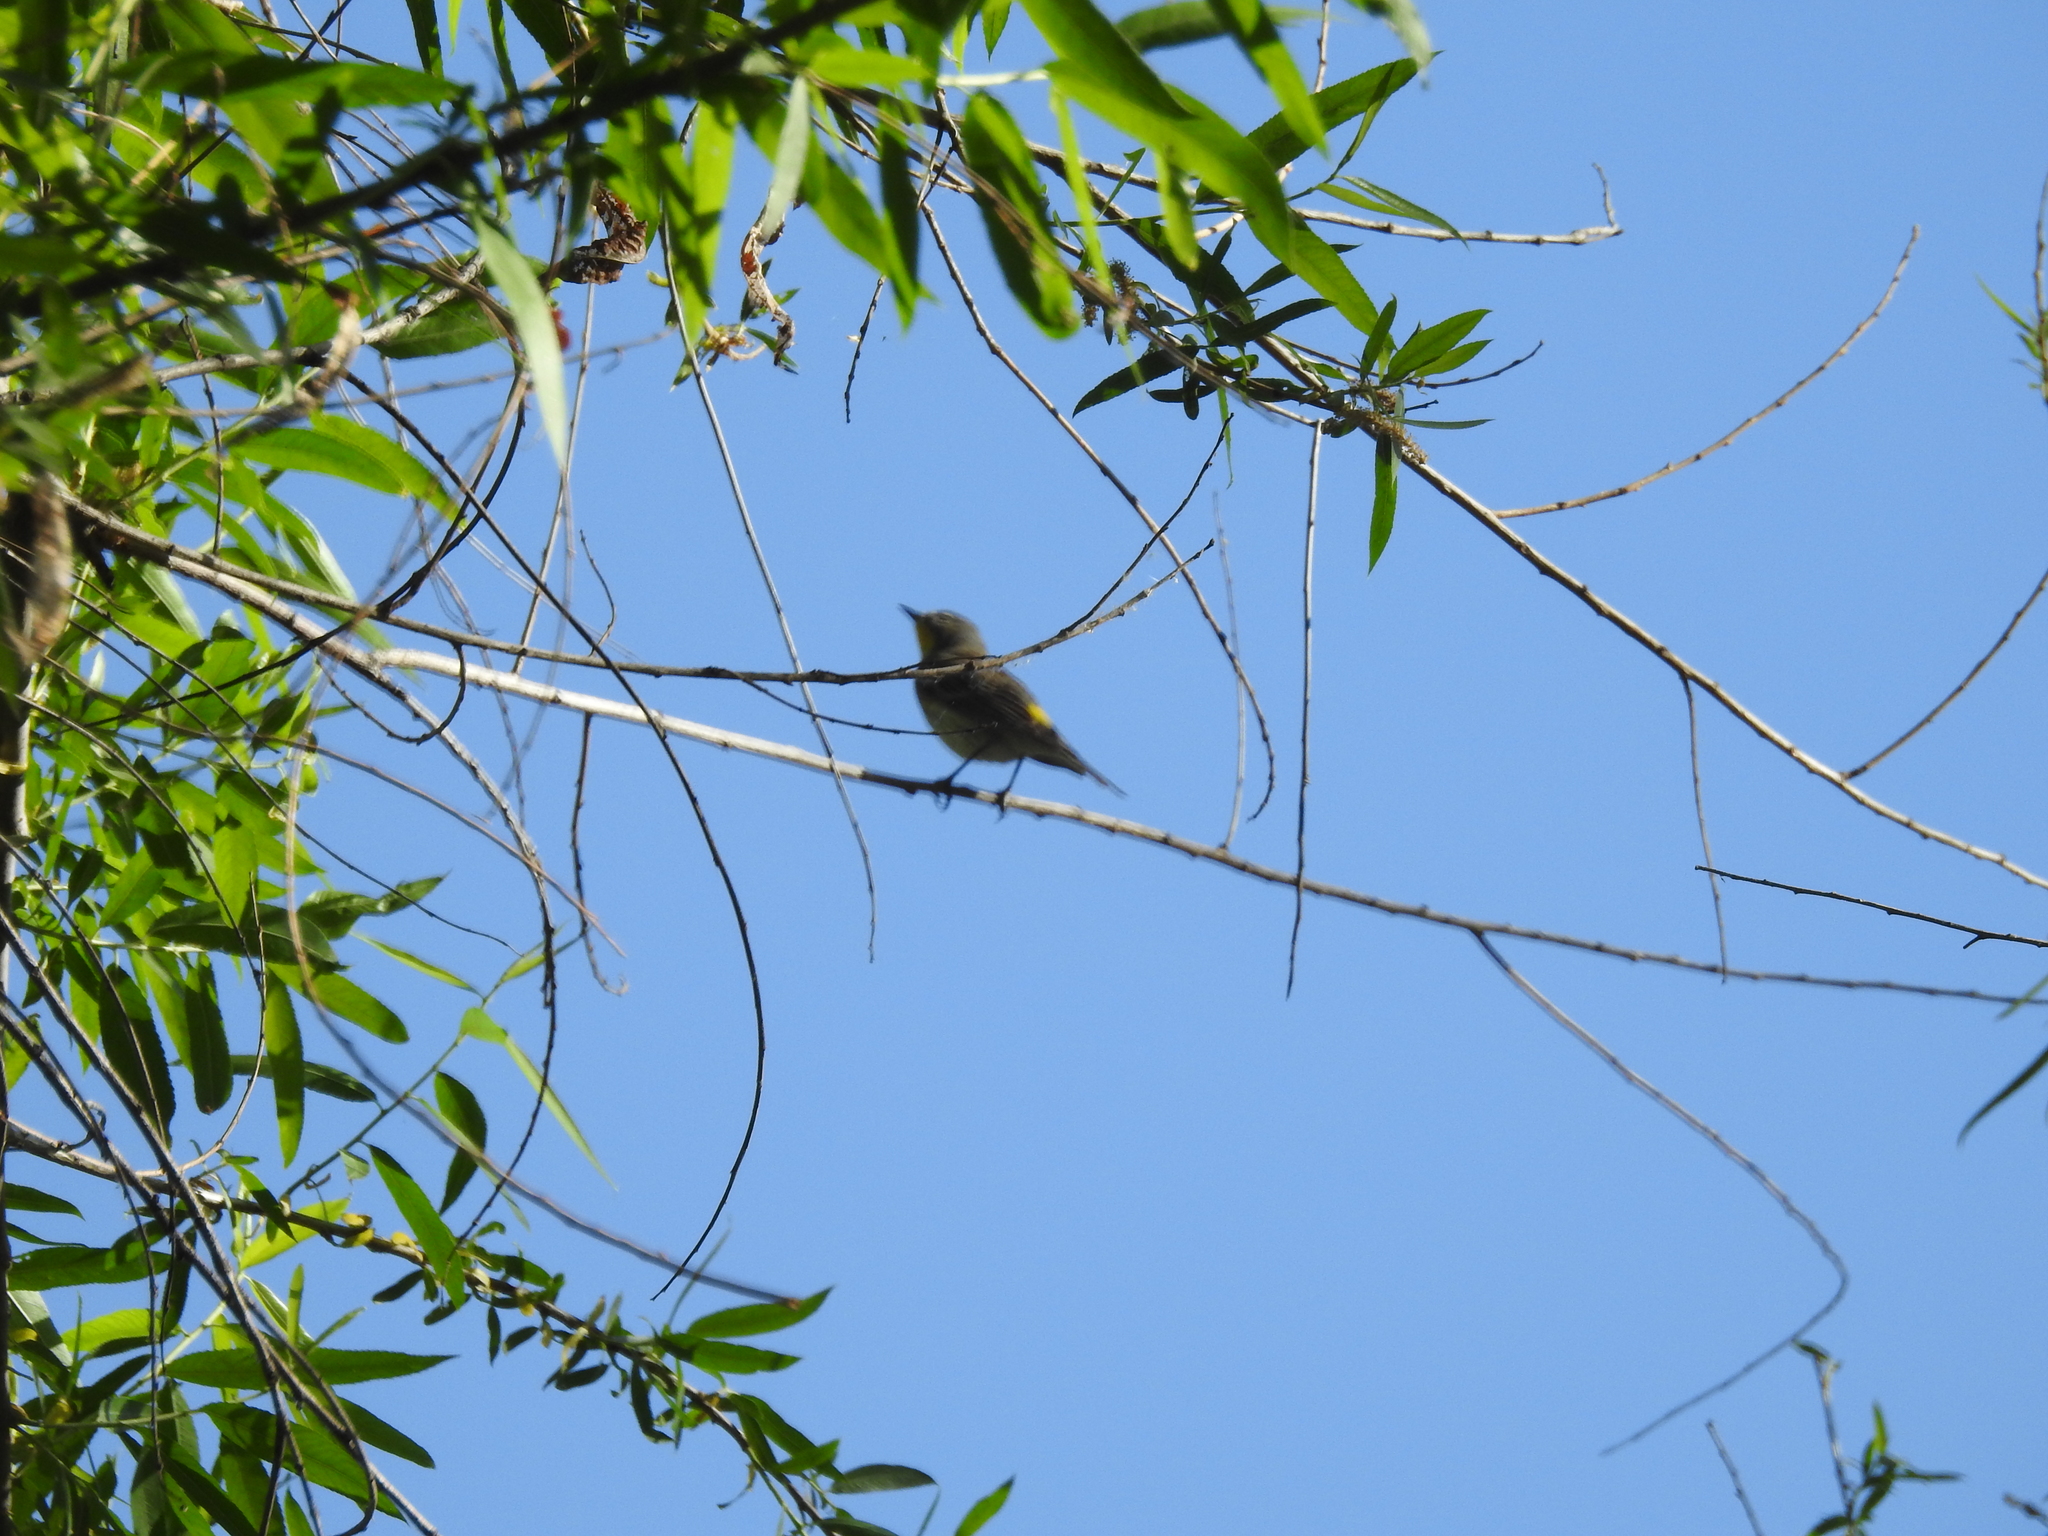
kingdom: Animalia
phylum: Chordata
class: Aves
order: Passeriformes
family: Parulidae
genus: Setophaga
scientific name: Setophaga auduboni
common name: Audubon's warbler
